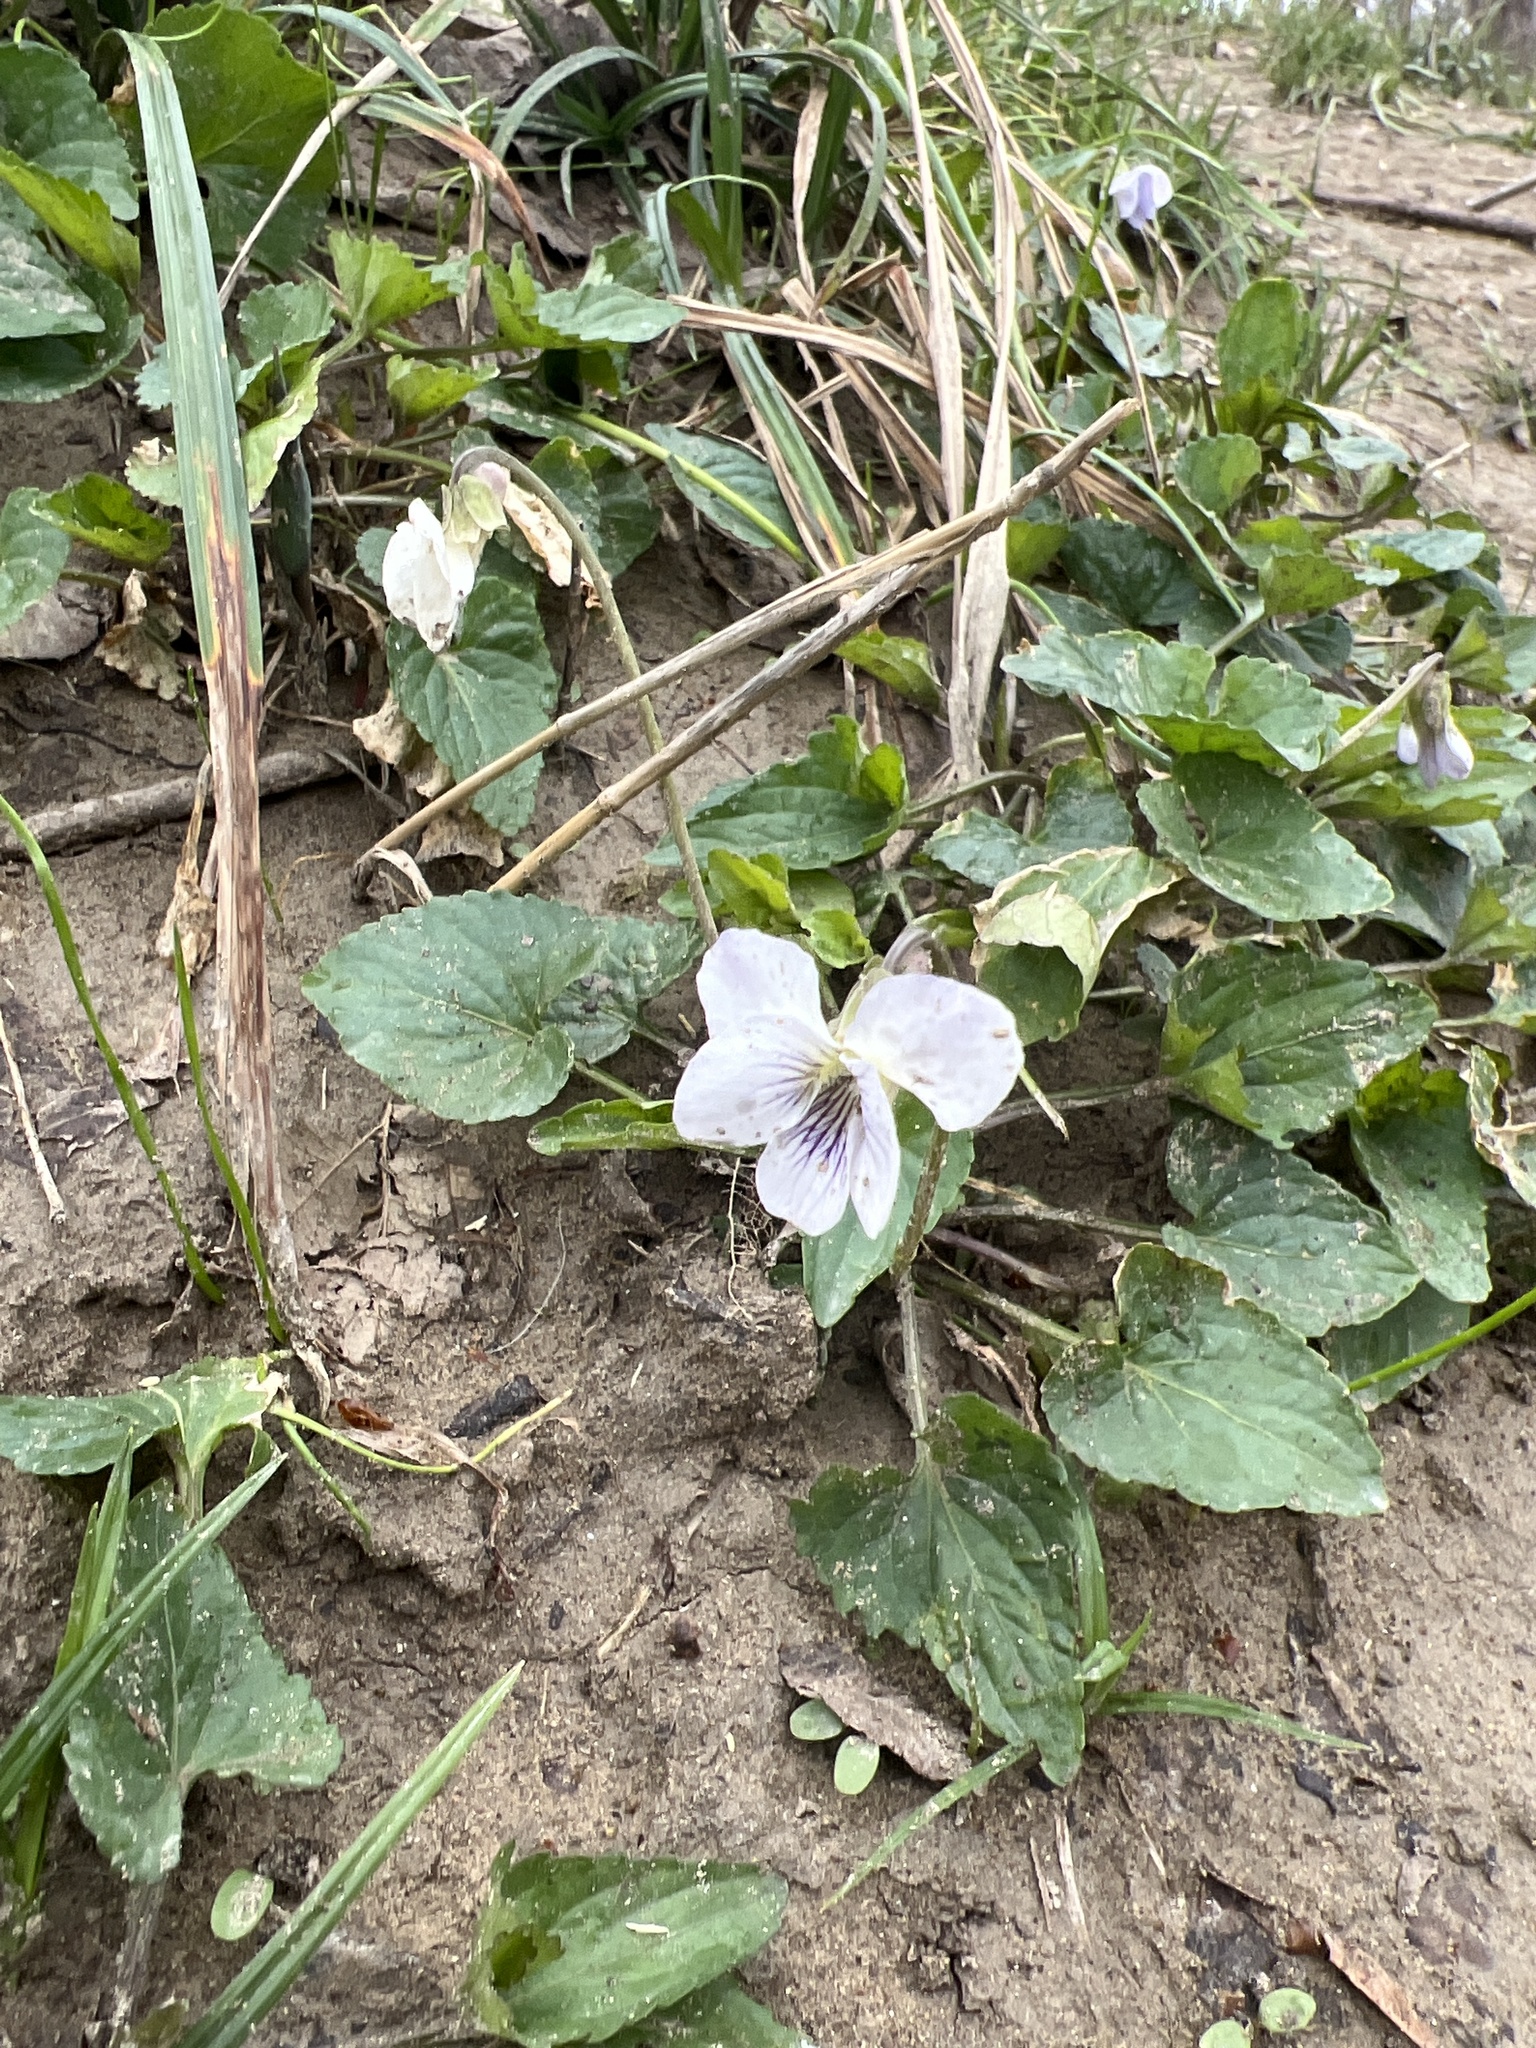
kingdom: Plantae
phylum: Tracheophyta
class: Magnoliopsida
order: Malpighiales
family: Violaceae
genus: Viola
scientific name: Viola missouriensis
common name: Missouri violet
